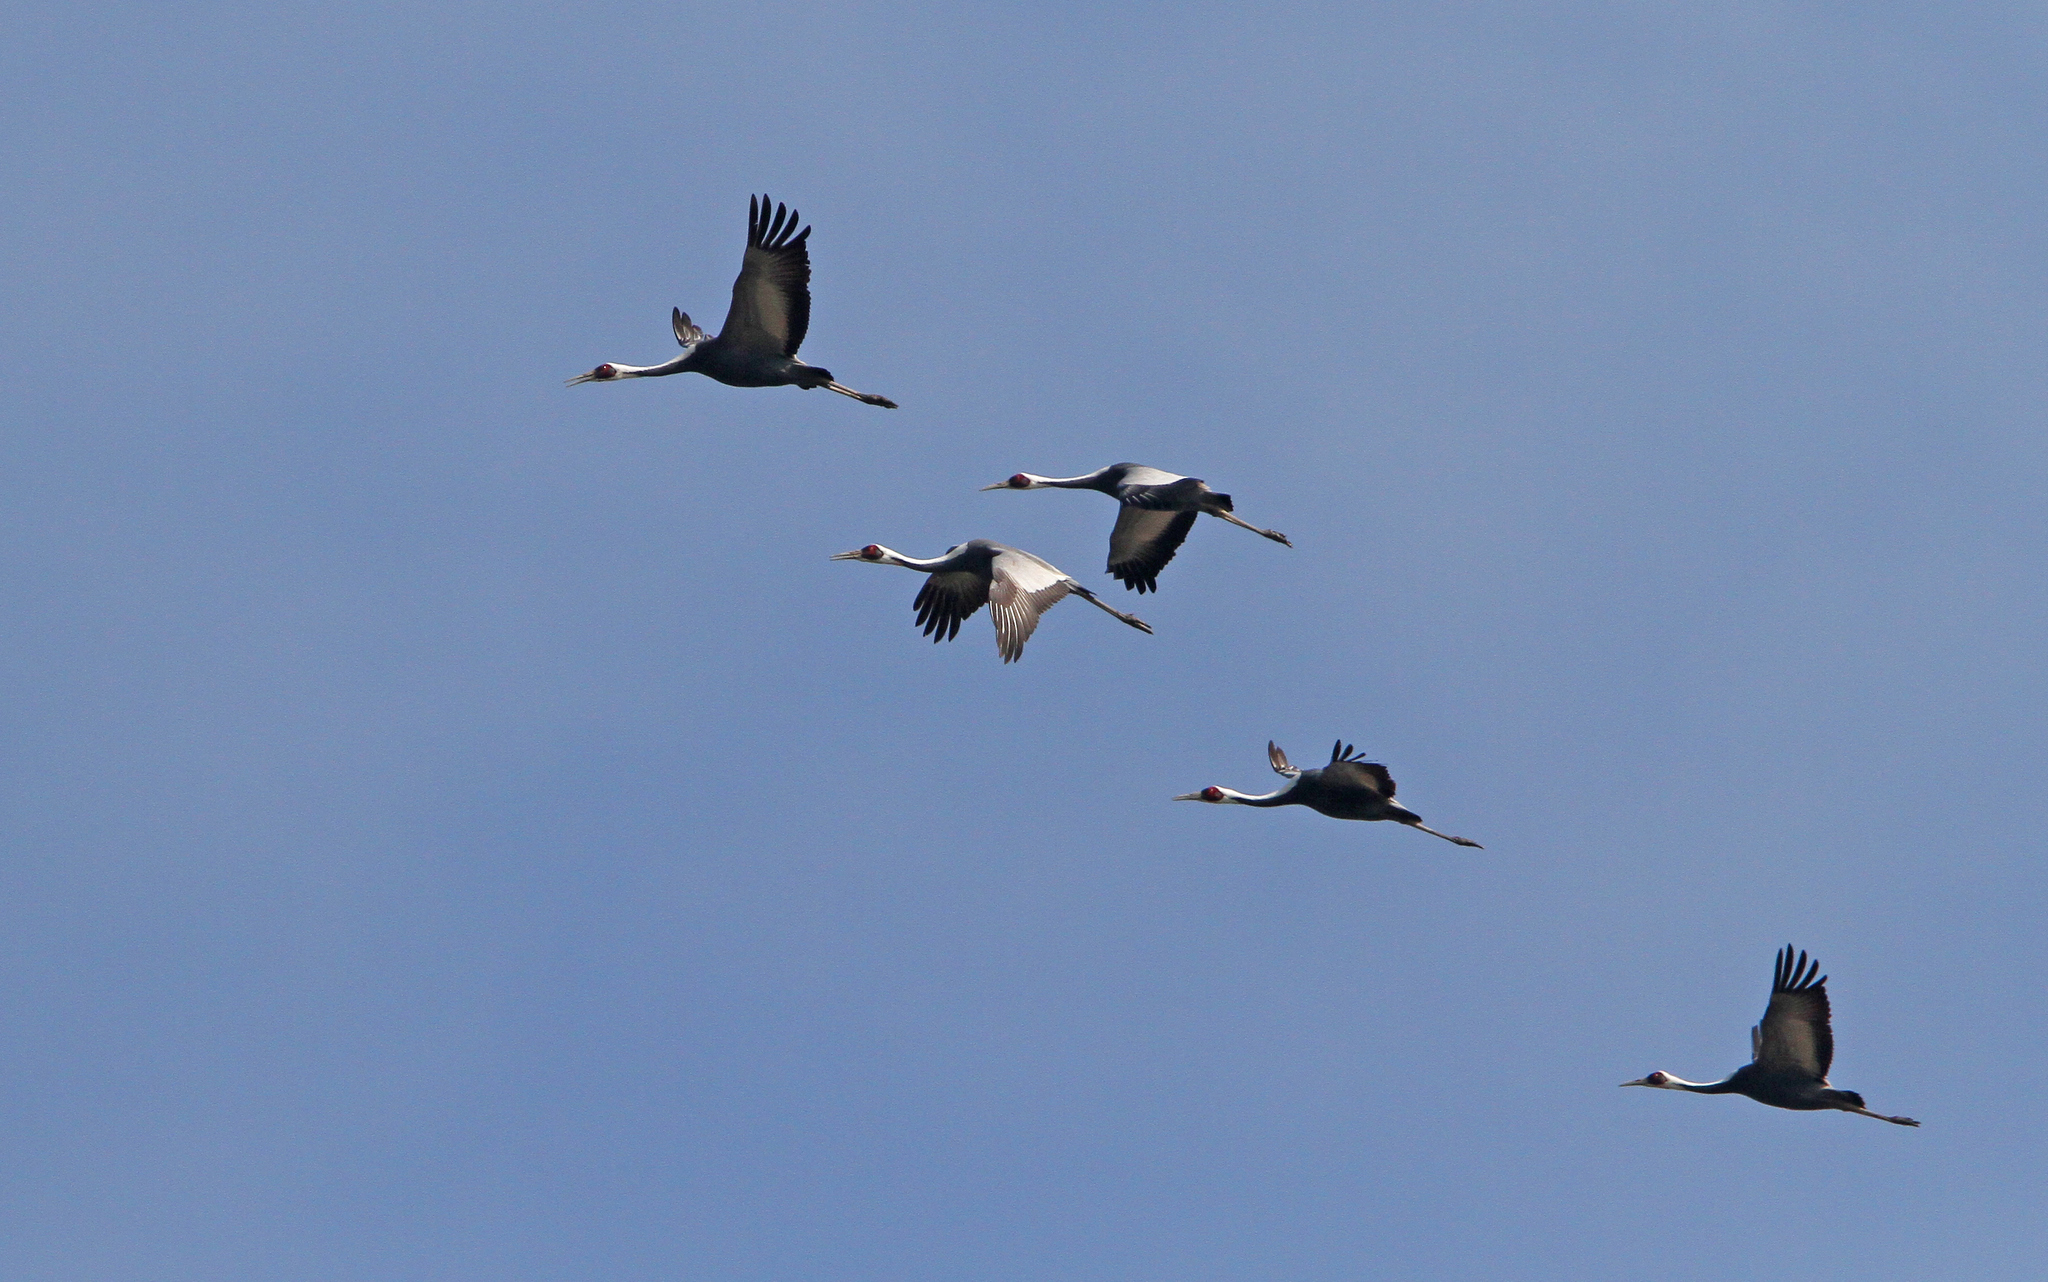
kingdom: Animalia
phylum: Chordata
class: Aves
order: Gruiformes
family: Gruidae
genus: Grus
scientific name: Grus vipio
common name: White-naped crane
